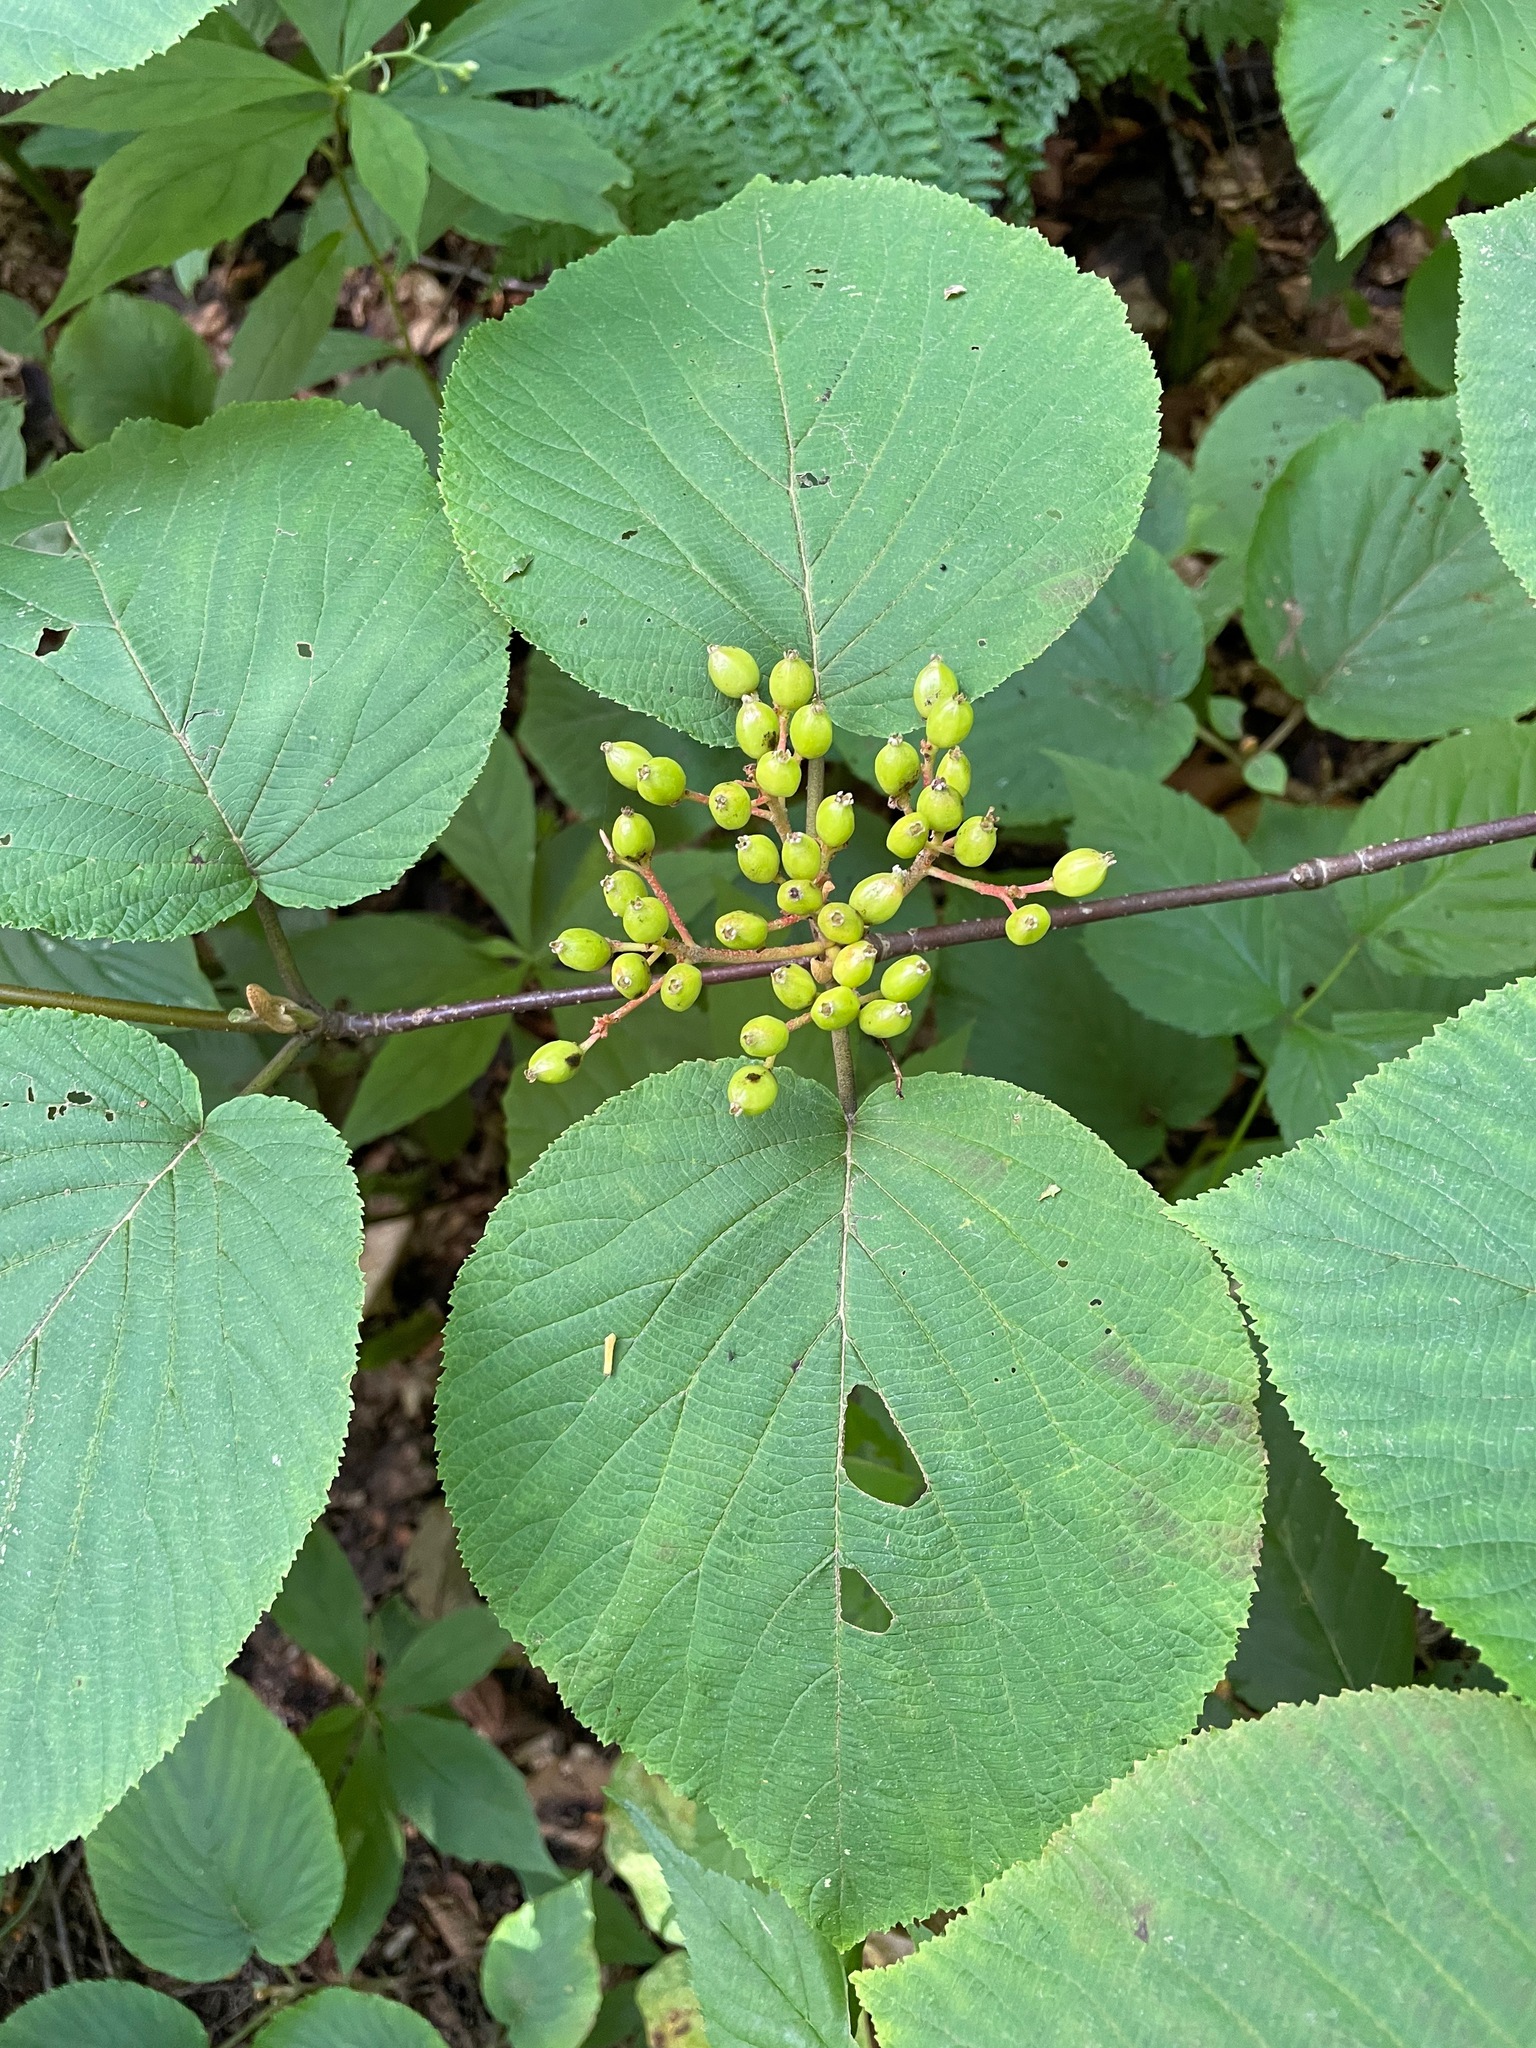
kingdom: Plantae
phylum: Tracheophyta
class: Magnoliopsida
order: Dipsacales
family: Viburnaceae
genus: Viburnum
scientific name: Viburnum lantanoides
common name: Hobblebush
